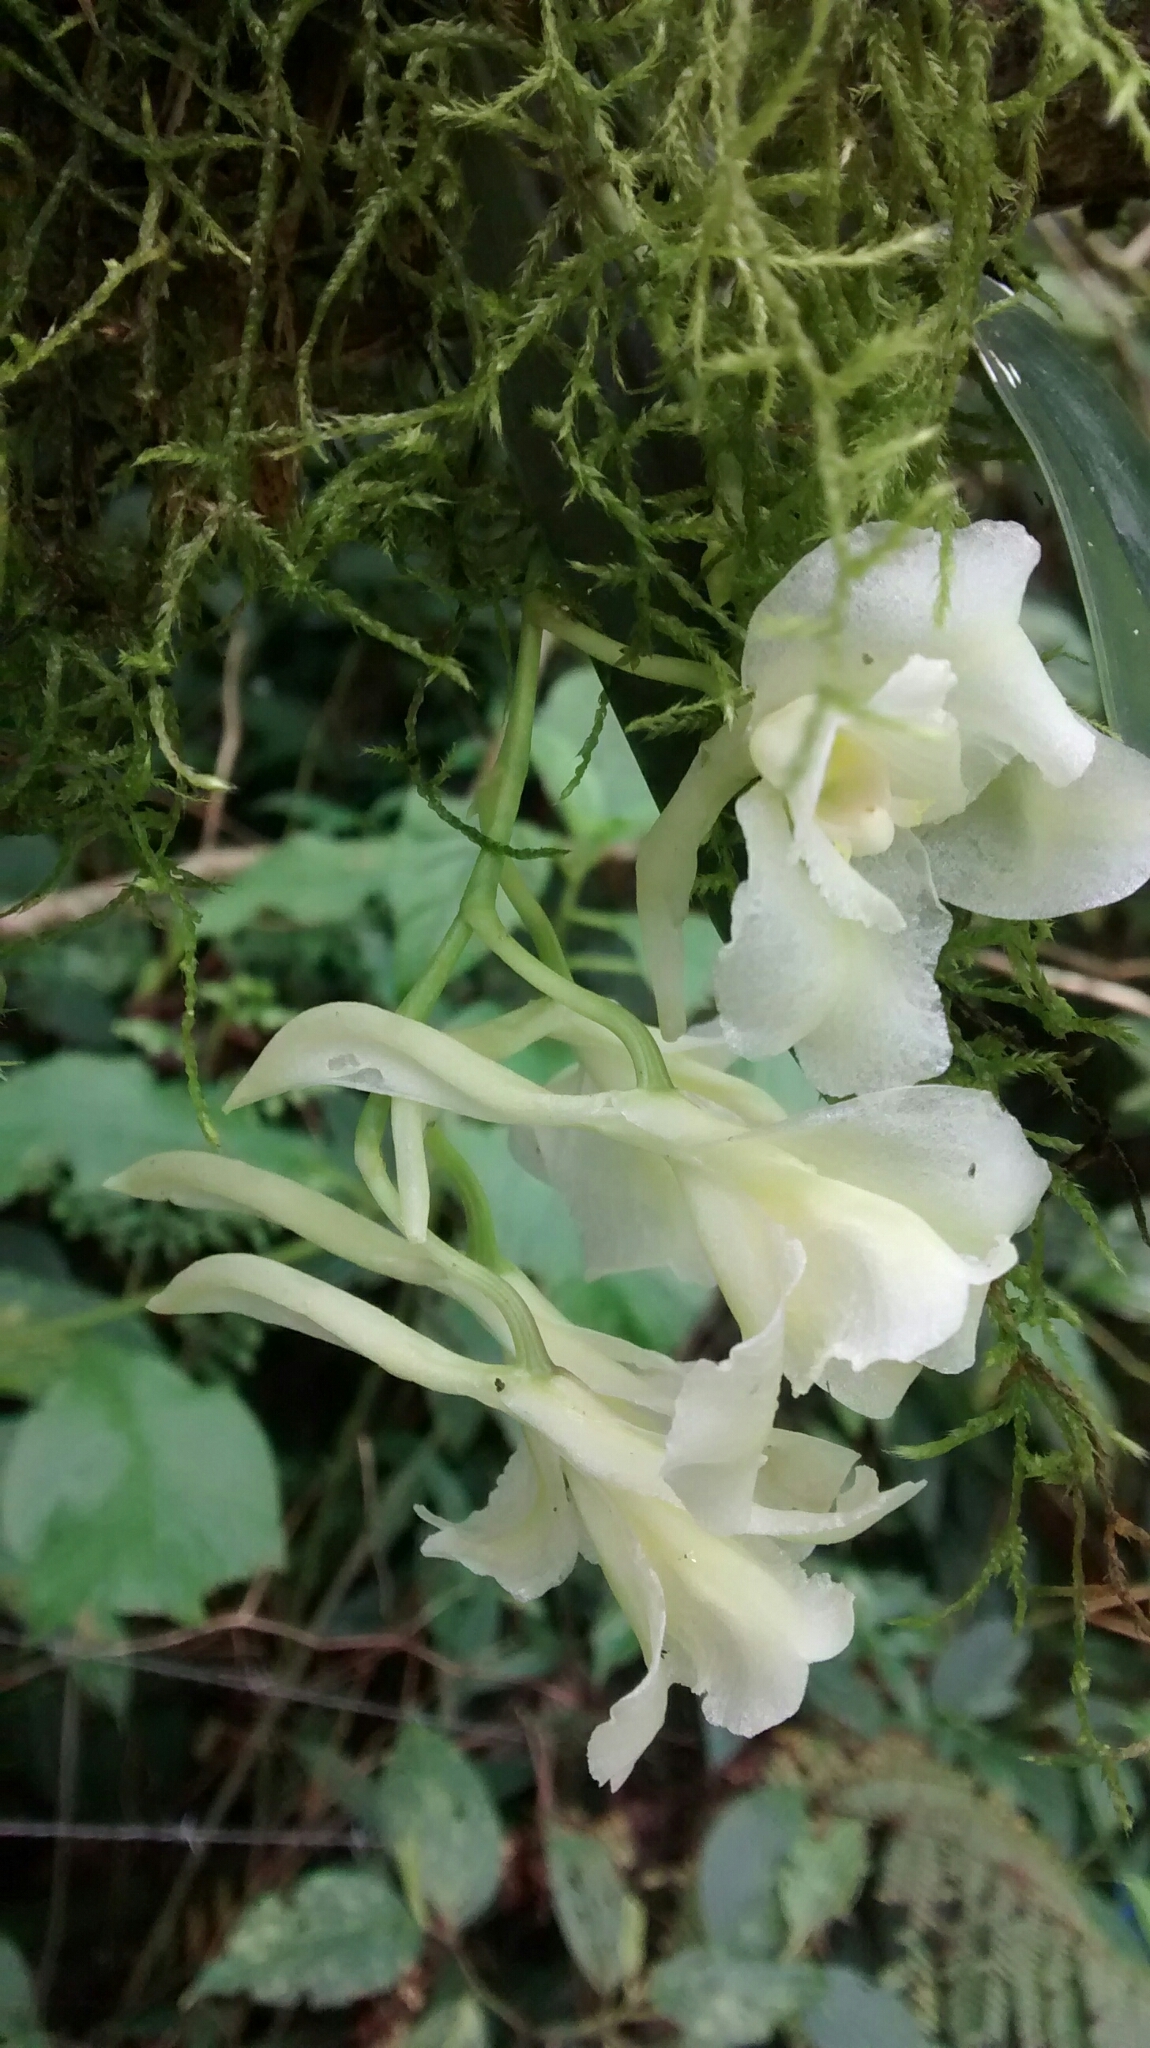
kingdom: Plantae
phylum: Tracheophyta
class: Liliopsida
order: Asparagales
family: Orchidaceae
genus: Rodriguezia
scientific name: Rodriguezia granadensis
